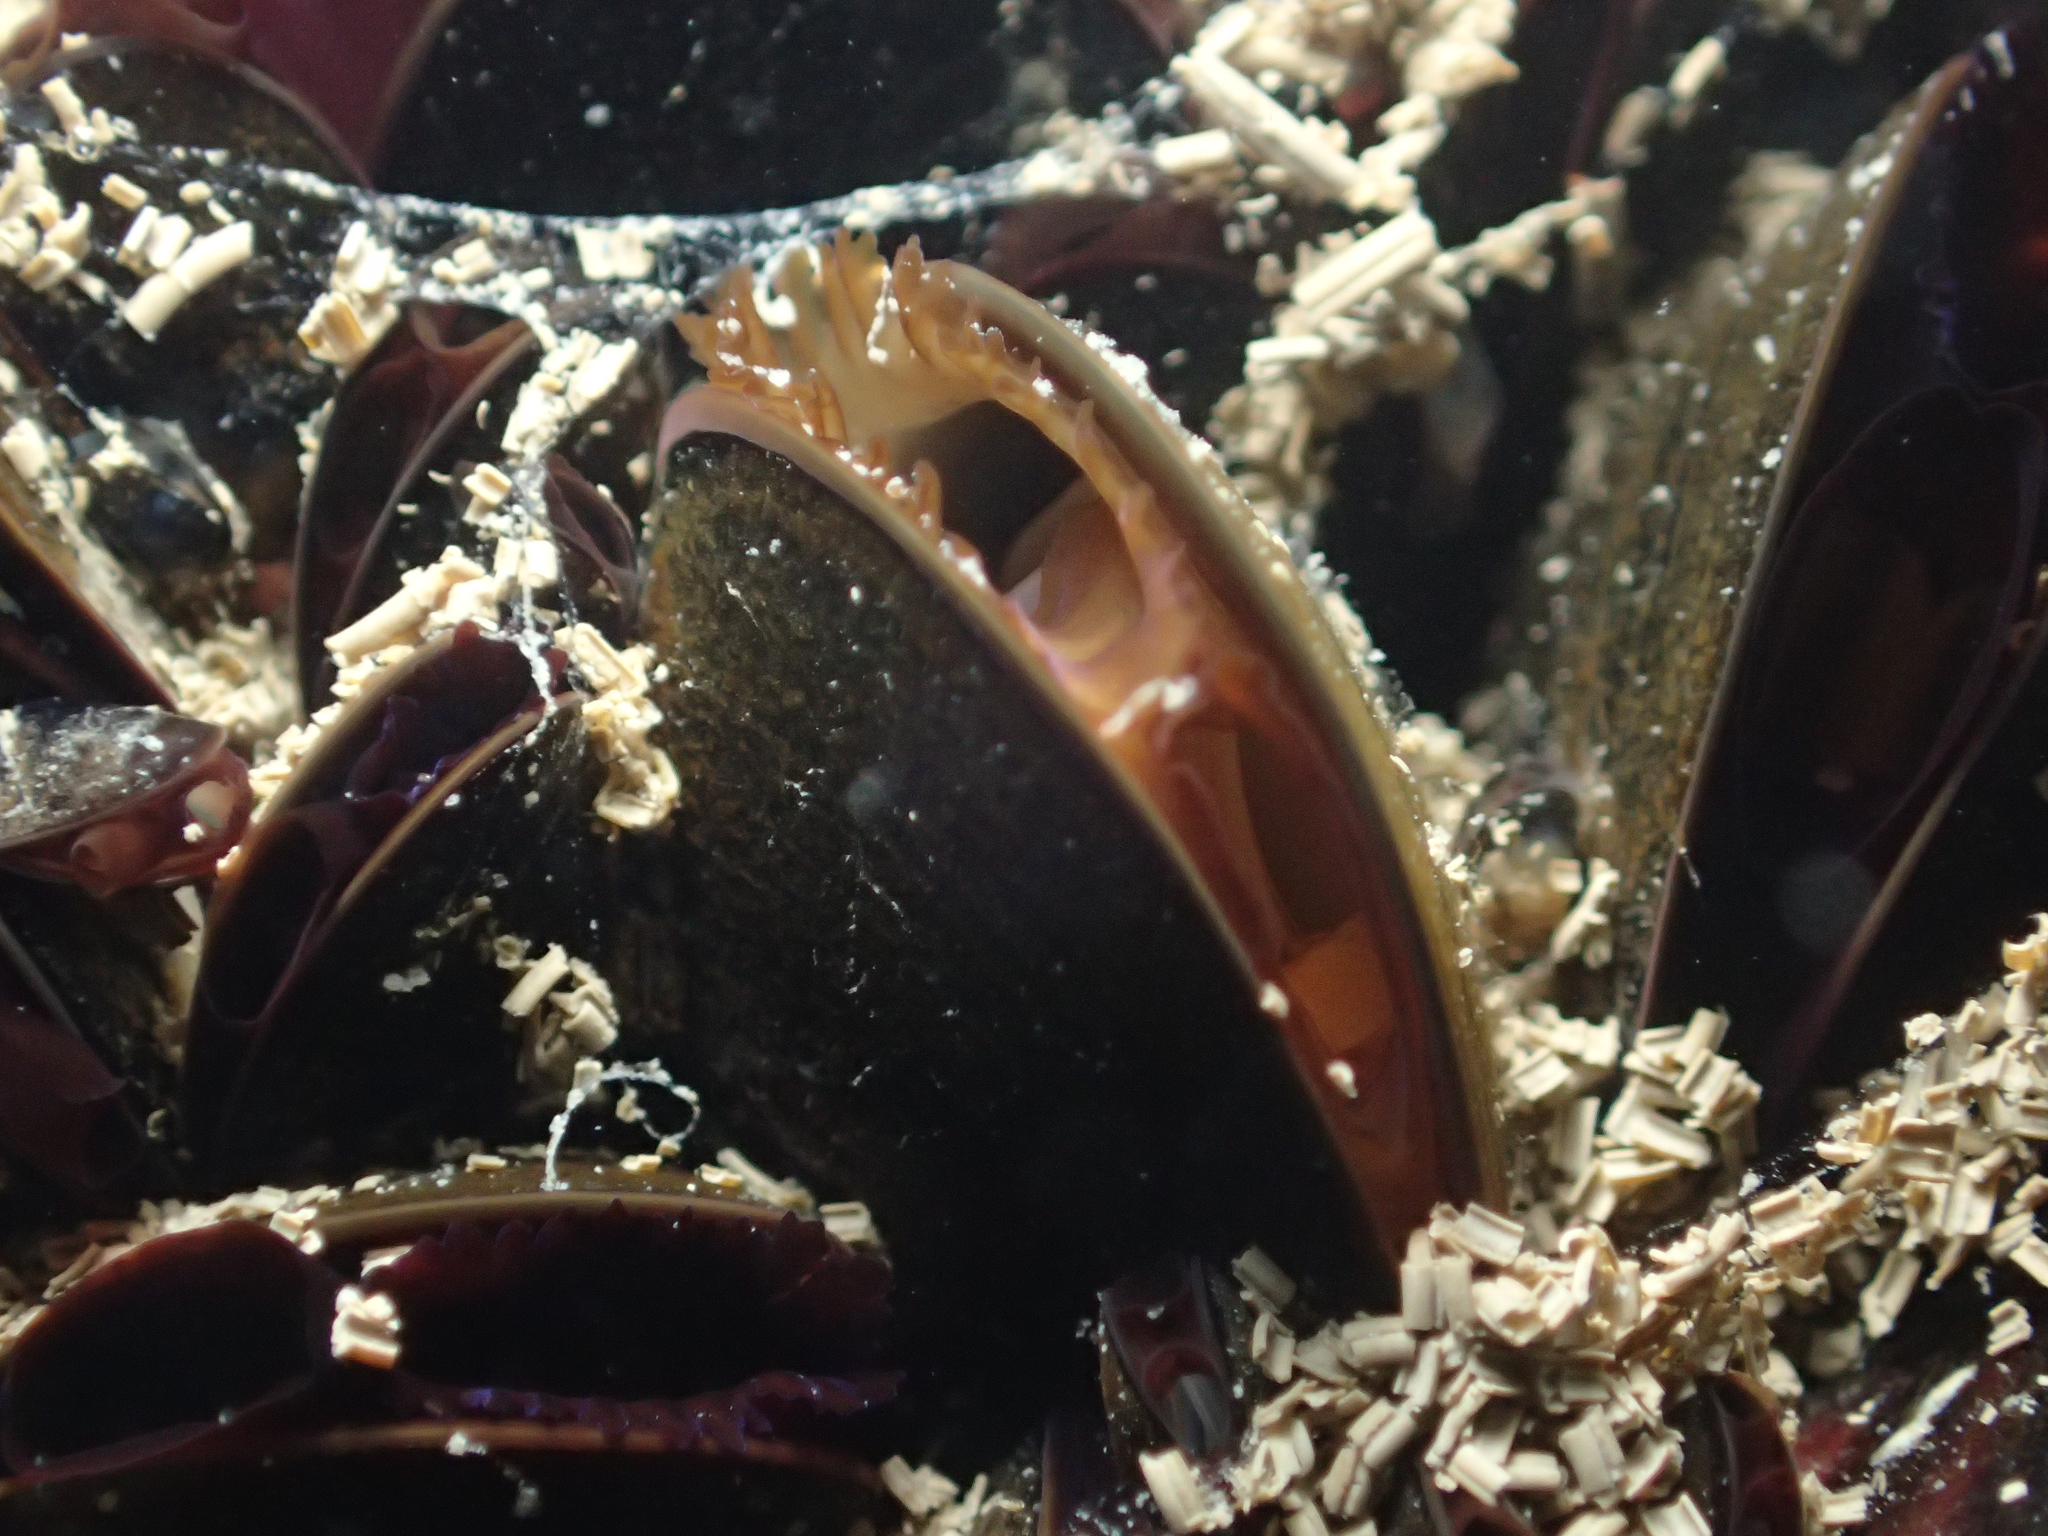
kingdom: Animalia
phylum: Mollusca
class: Bivalvia
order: Mytilida
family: Mytilidae
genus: Mytilus
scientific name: Mytilus galloprovincialis
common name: Mediterranean mussel
